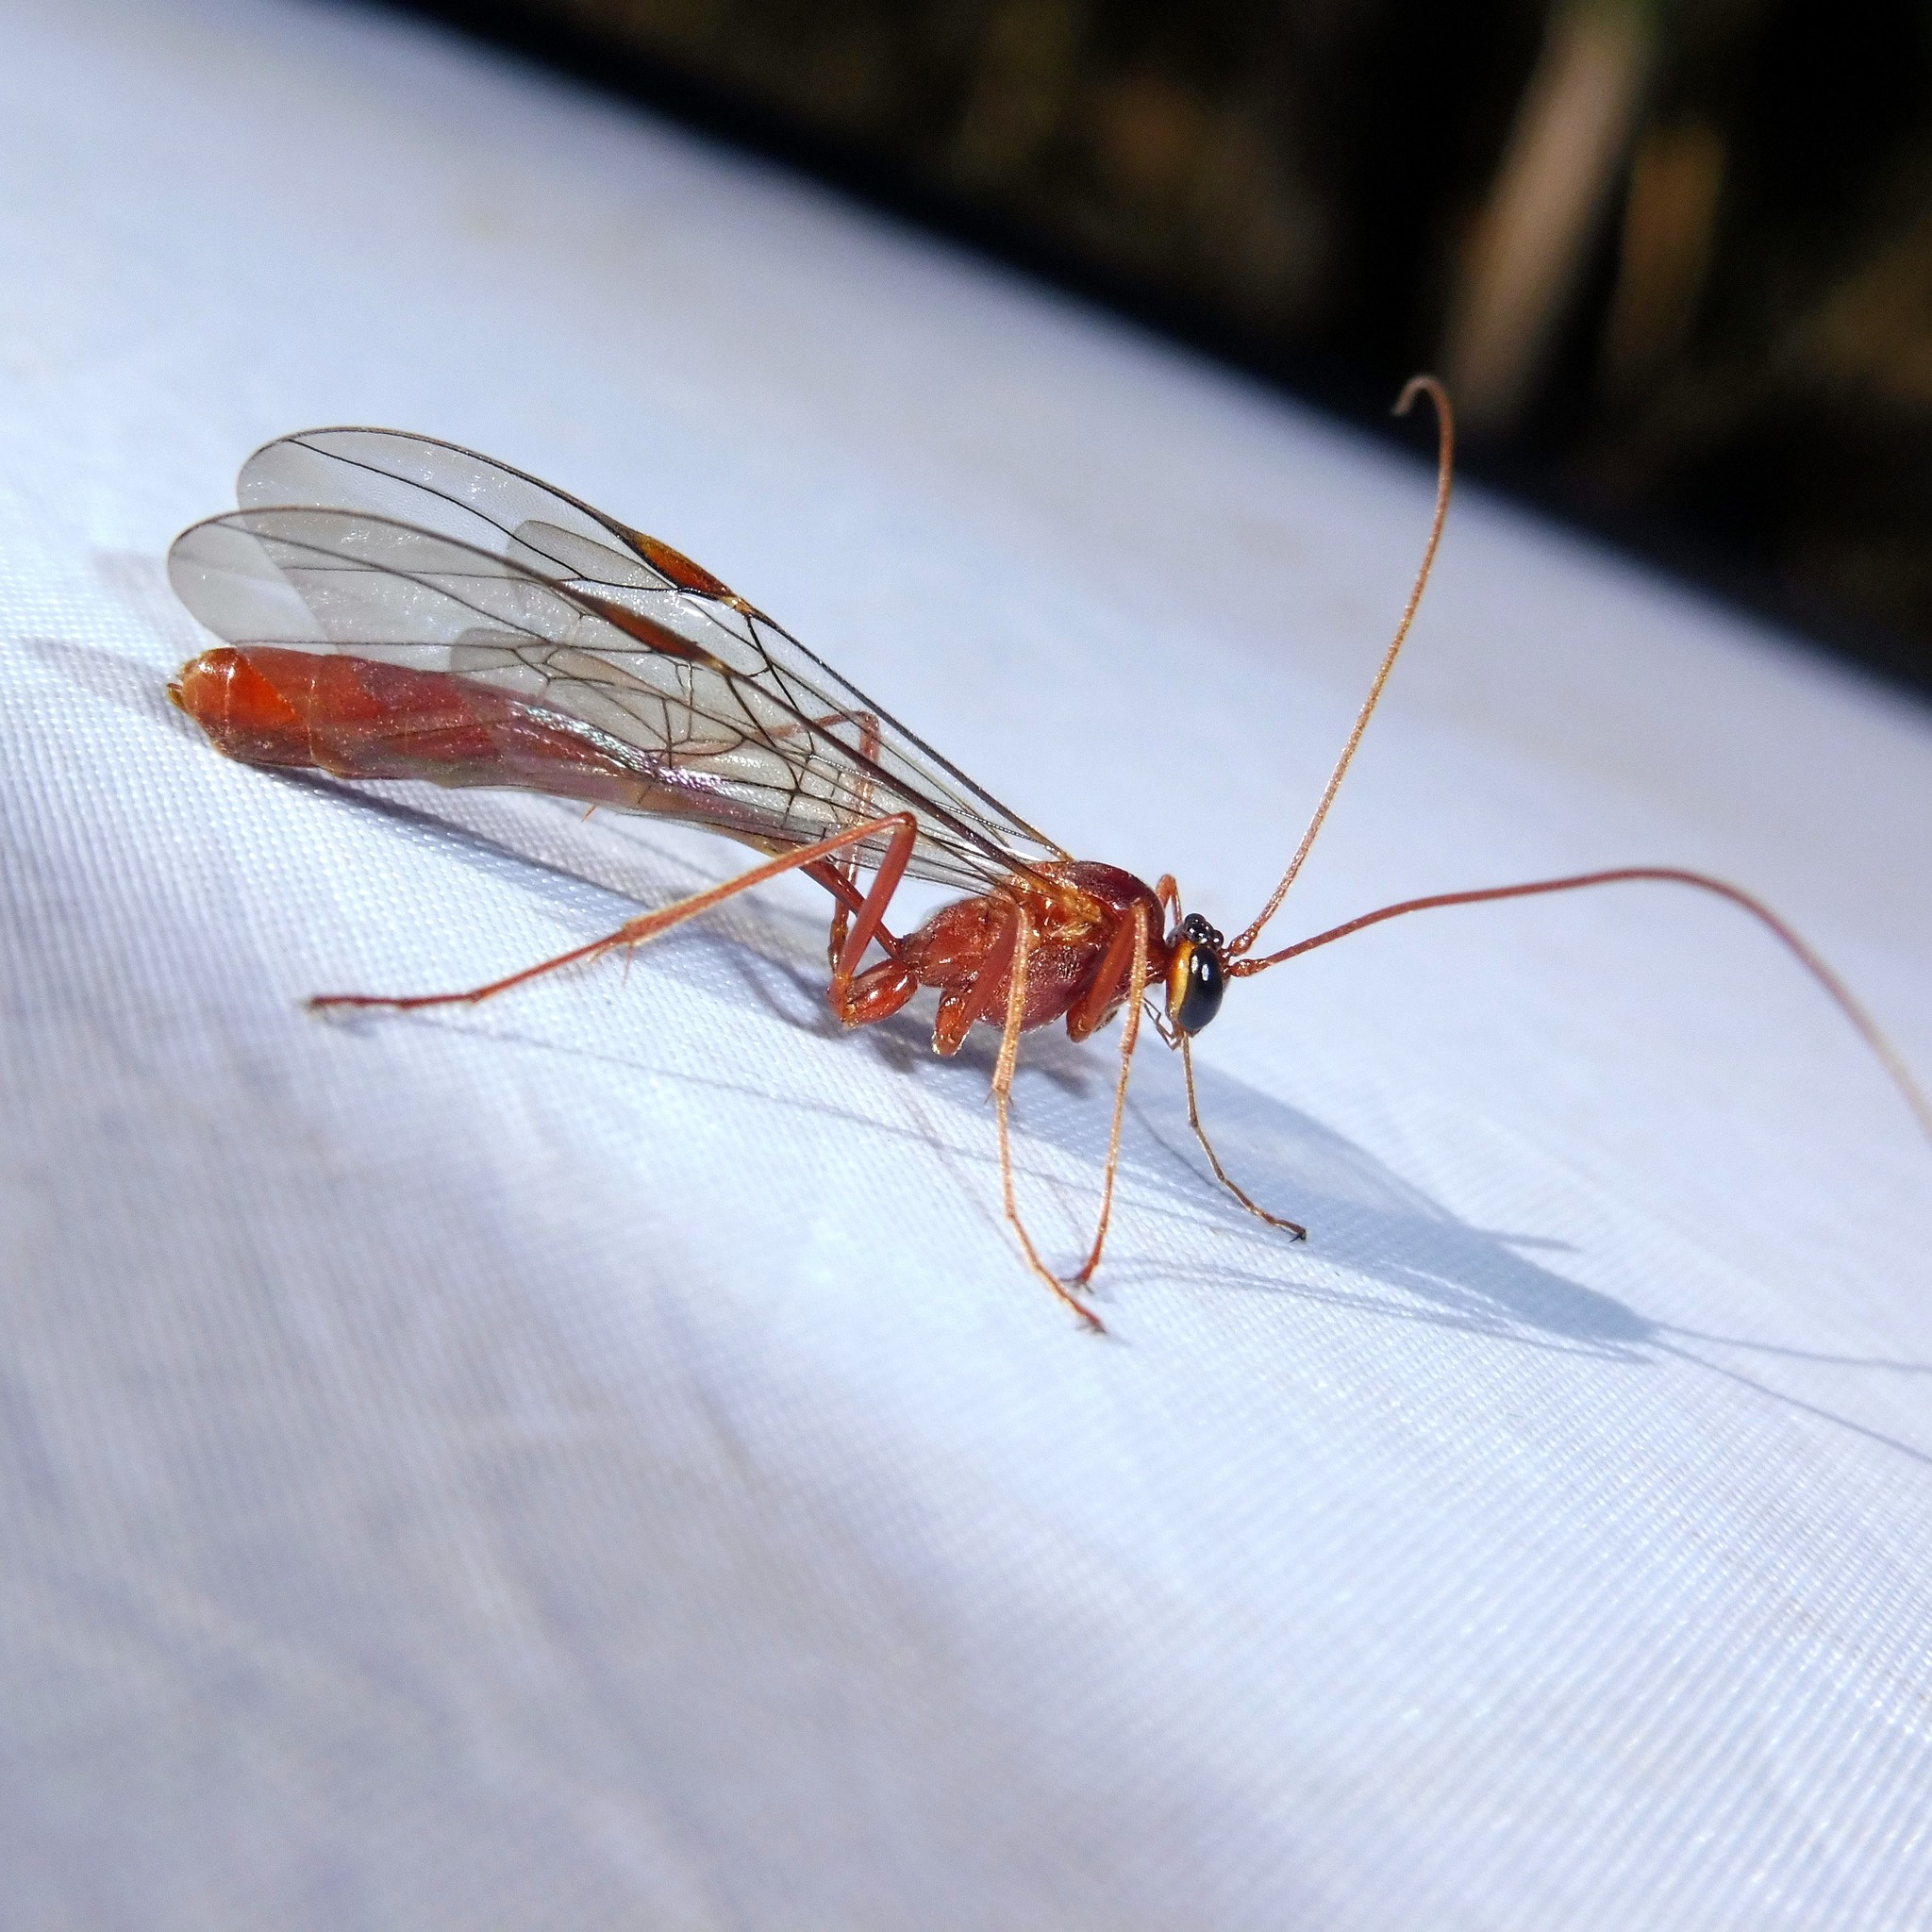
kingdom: Animalia
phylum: Arthropoda
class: Insecta
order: Hymenoptera
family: Ichneumonidae
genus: Ophion
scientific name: Ophion scutellaris
